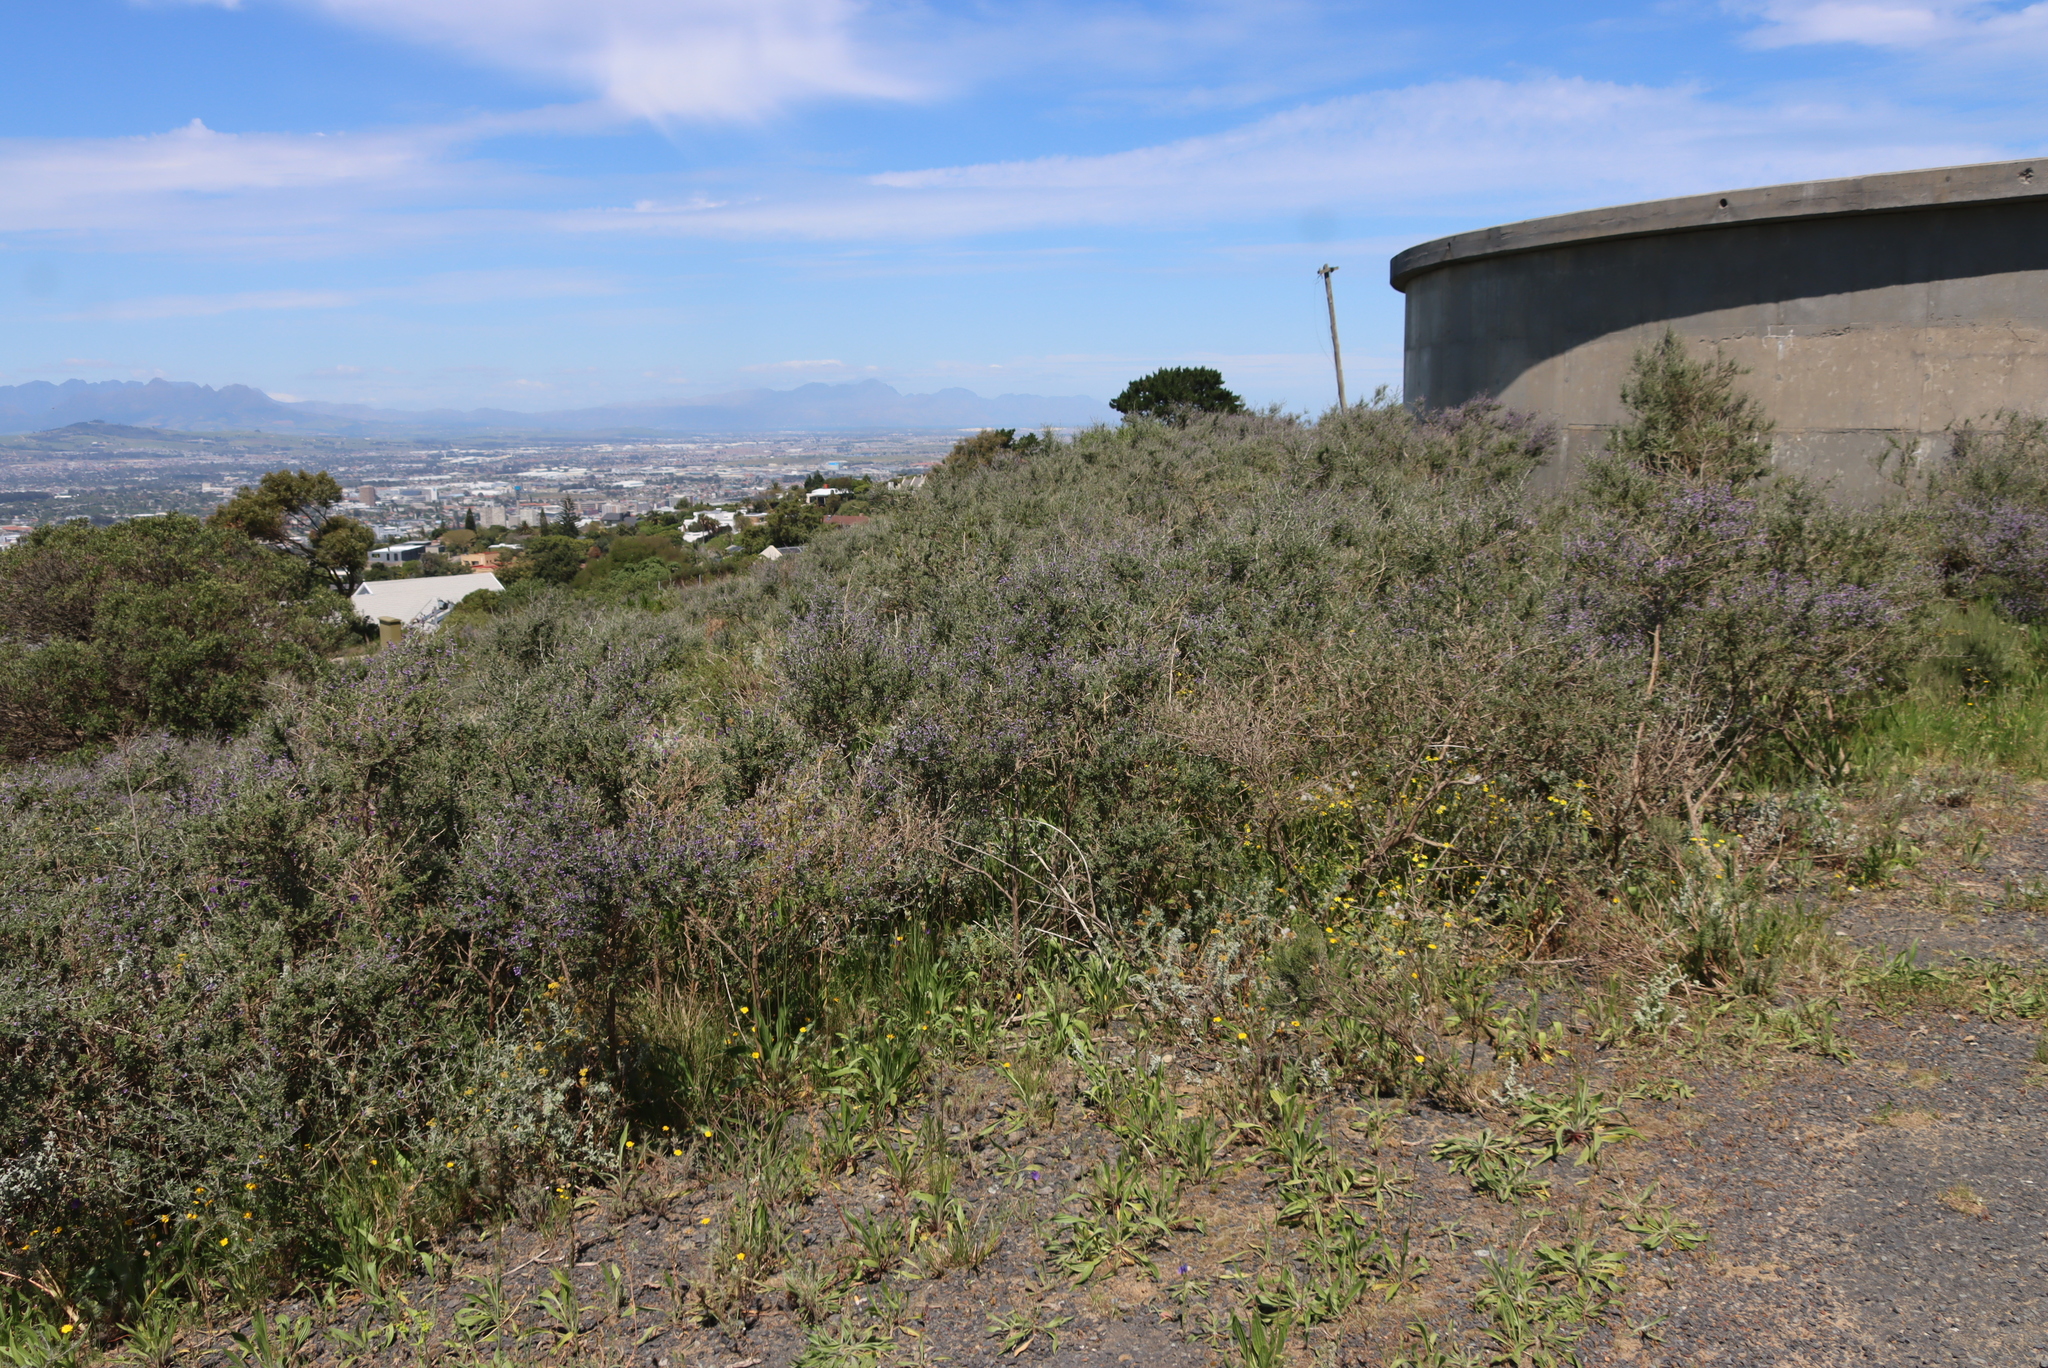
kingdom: Plantae
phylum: Tracheophyta
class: Magnoliopsida
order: Fabales
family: Fabaceae
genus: Psoralea
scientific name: Psoralea hirta
